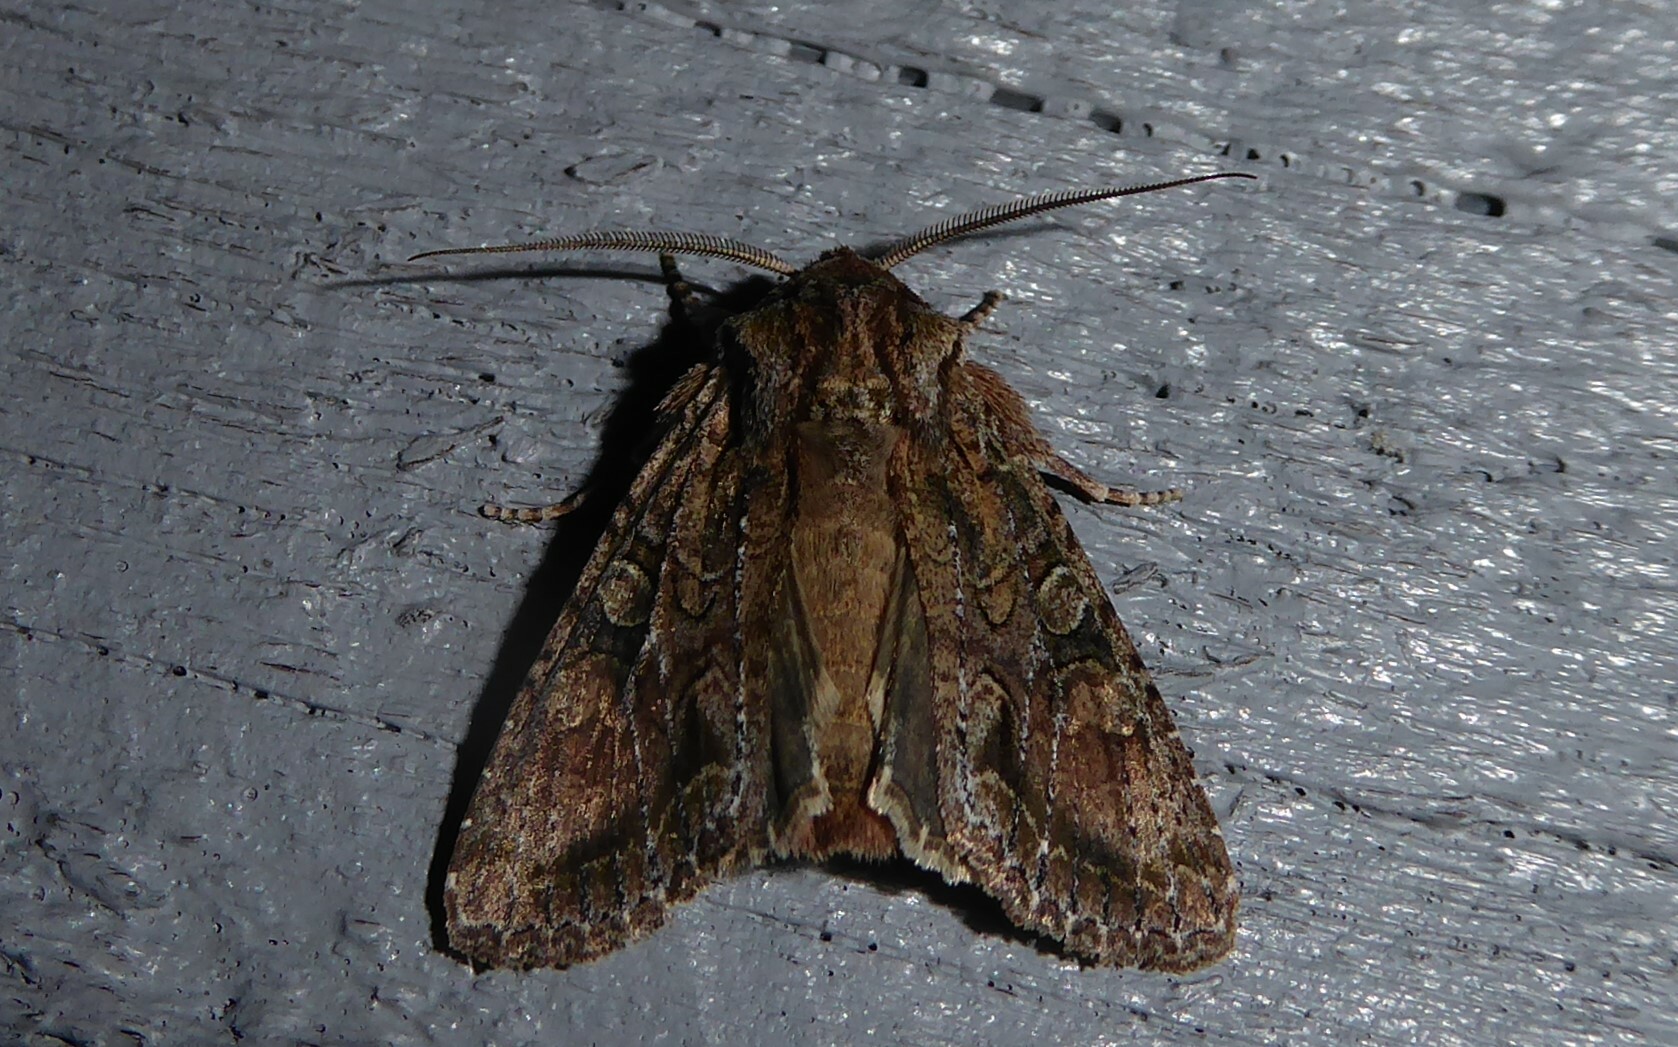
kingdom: Animalia
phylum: Arthropoda
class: Insecta
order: Lepidoptera
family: Noctuidae
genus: Ichneutica
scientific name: Ichneutica mutans
